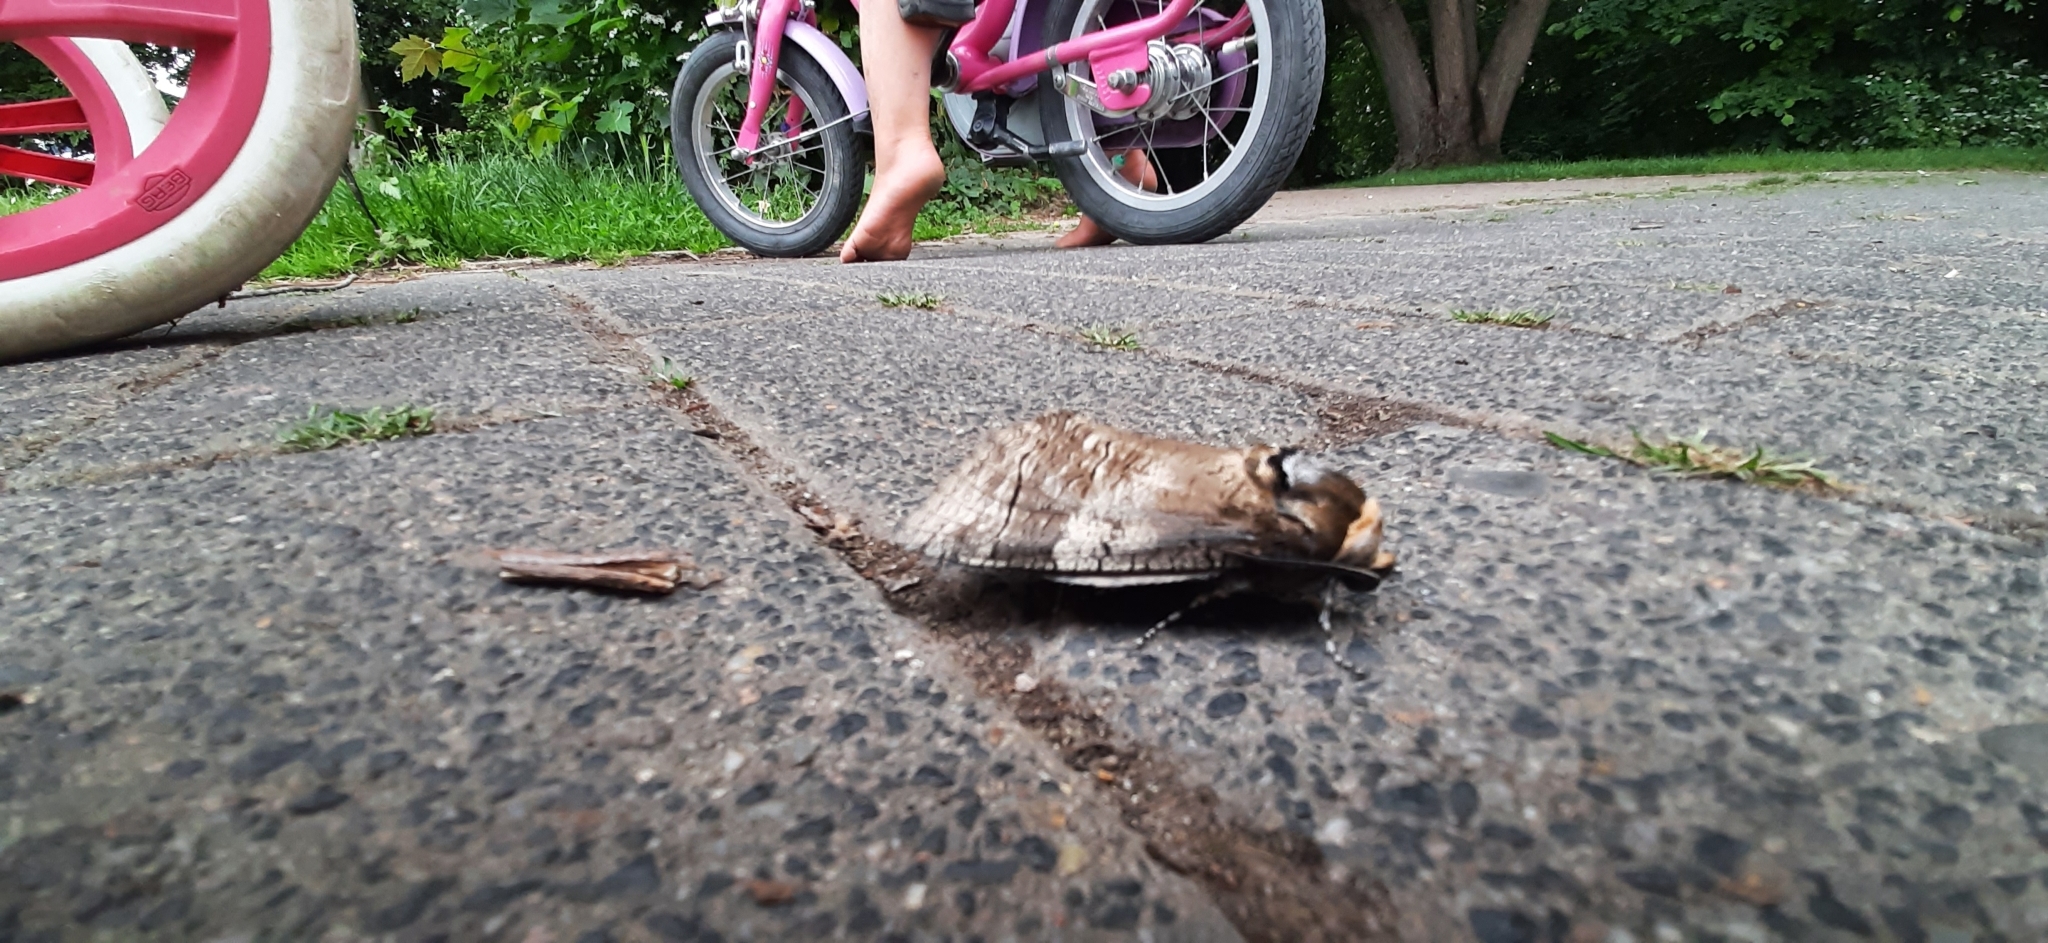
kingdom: Animalia
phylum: Arthropoda
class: Insecta
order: Lepidoptera
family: Cossidae
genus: Cossus
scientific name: Cossus cossus
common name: Goat moth
